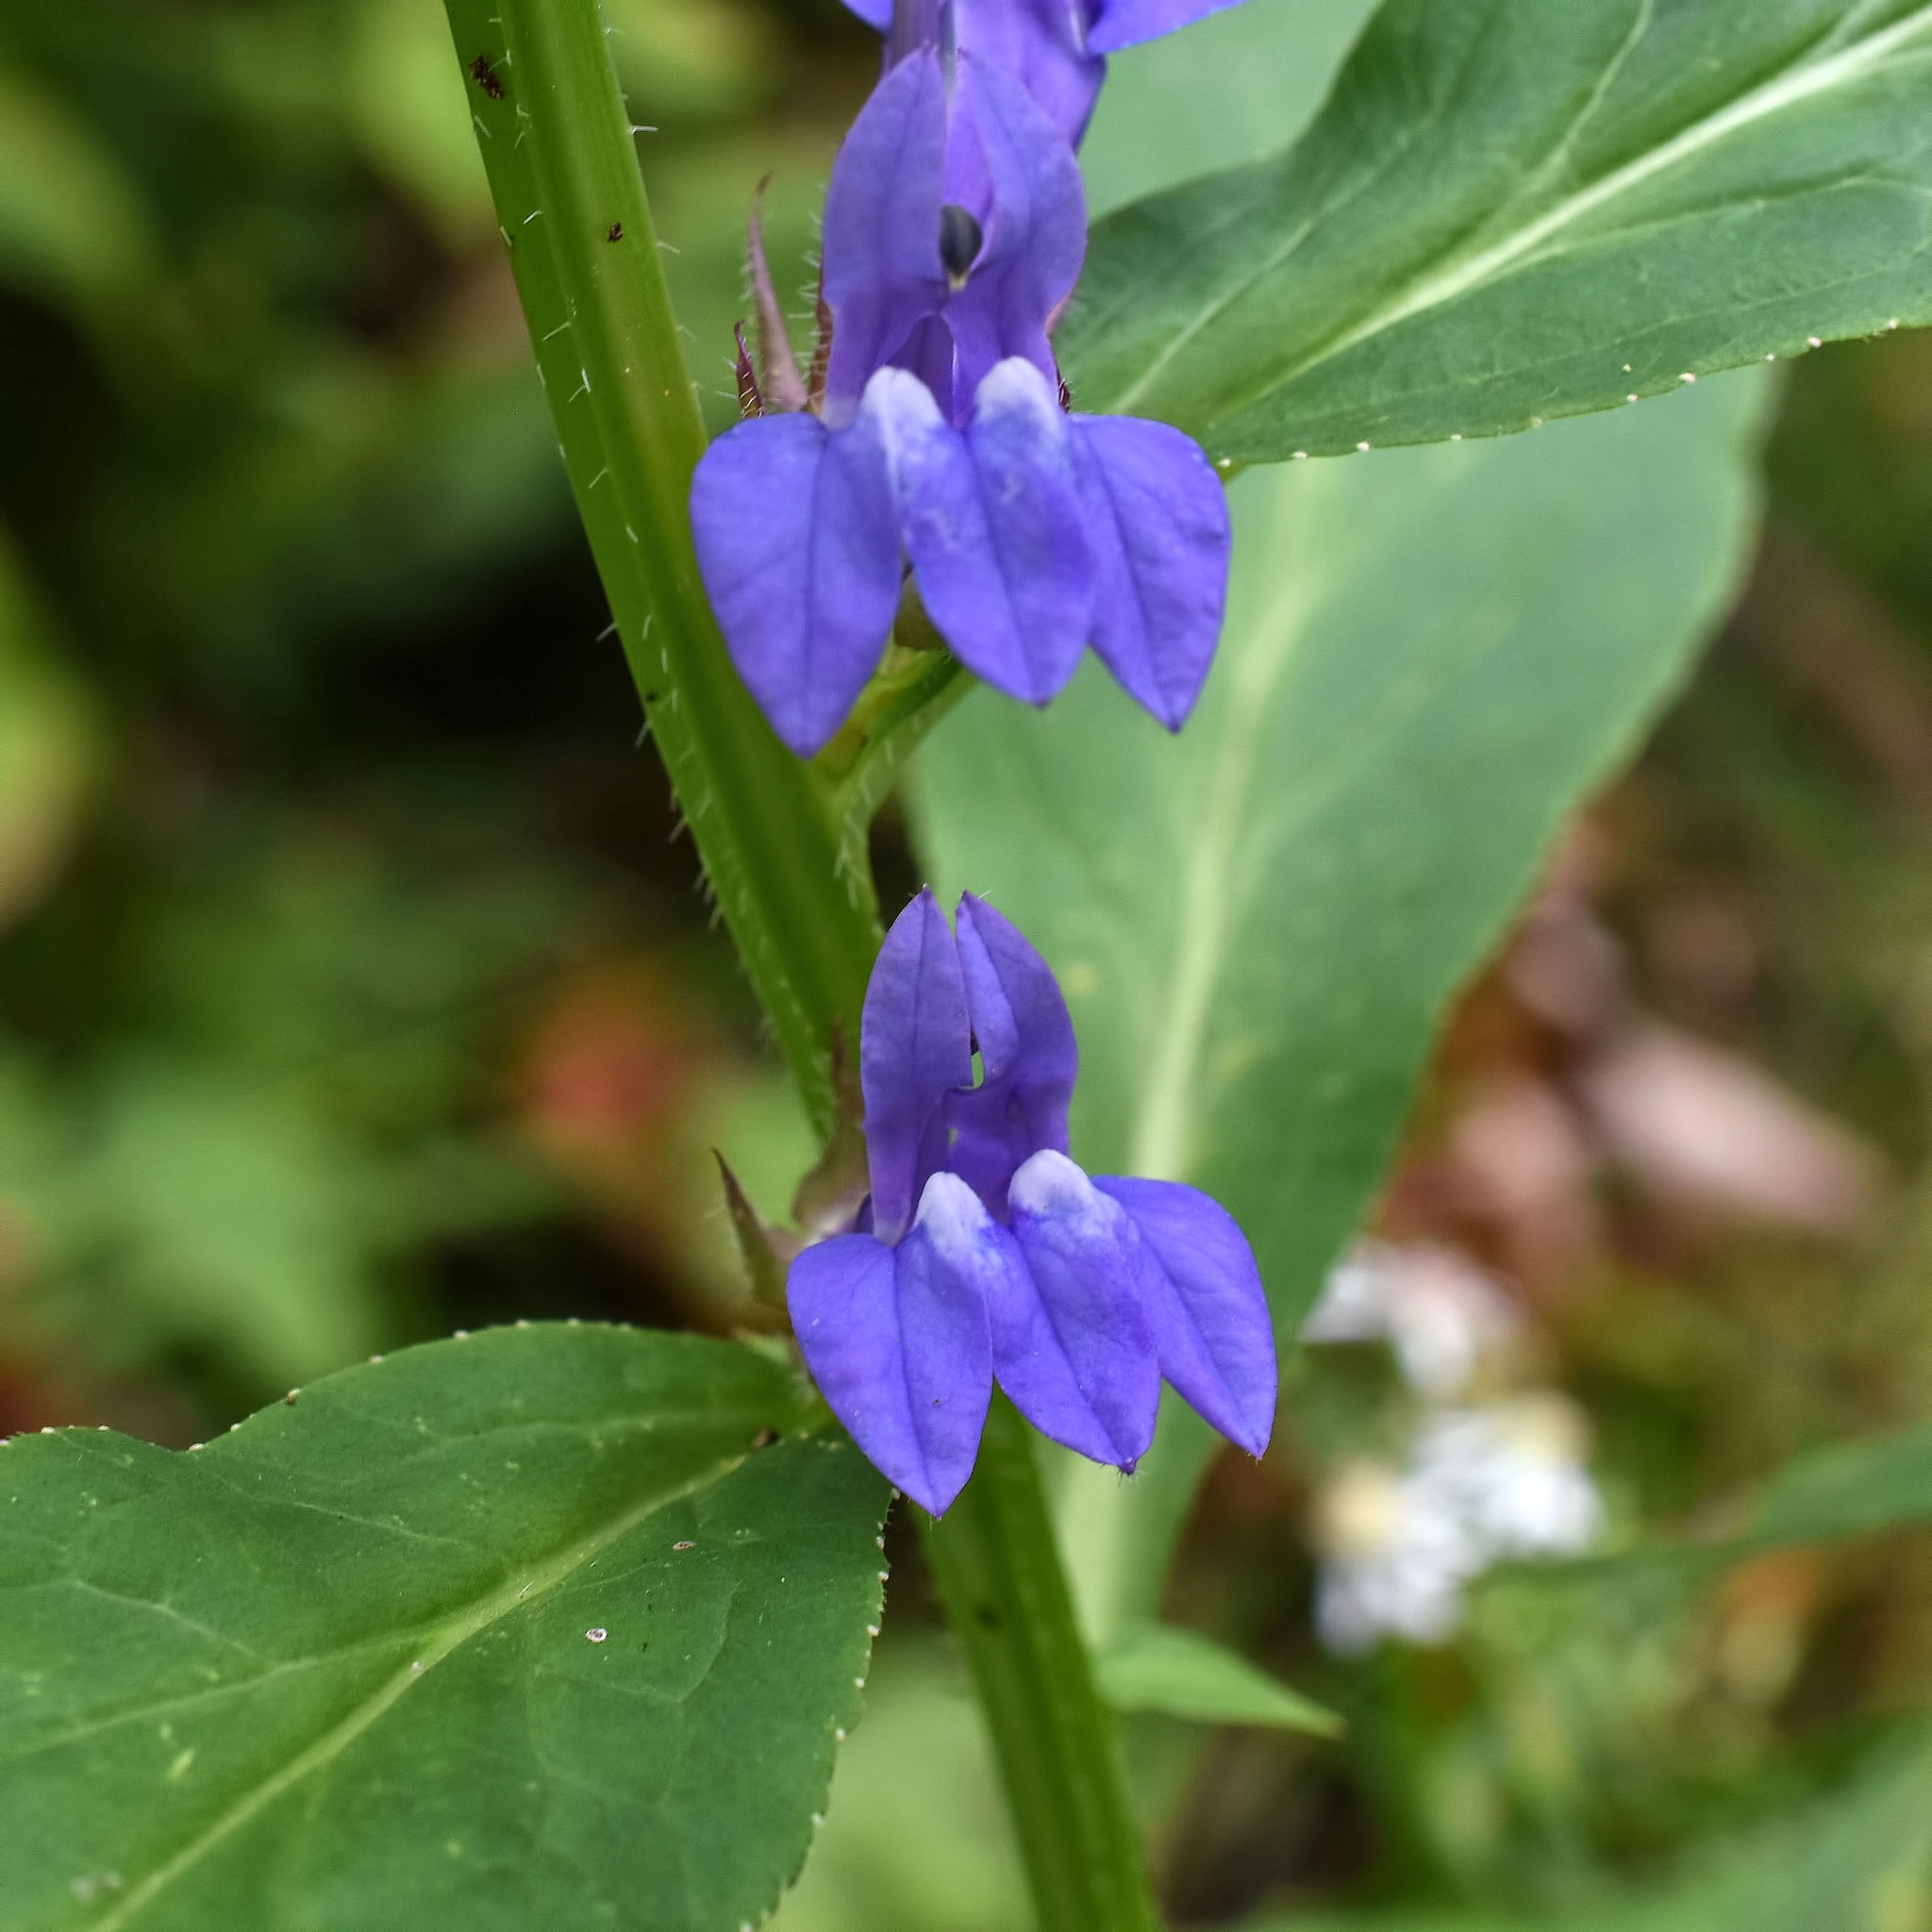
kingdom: Plantae
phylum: Tracheophyta
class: Magnoliopsida
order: Asterales
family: Campanulaceae
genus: Lobelia
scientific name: Lobelia siphilitica
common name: Great lobelia
